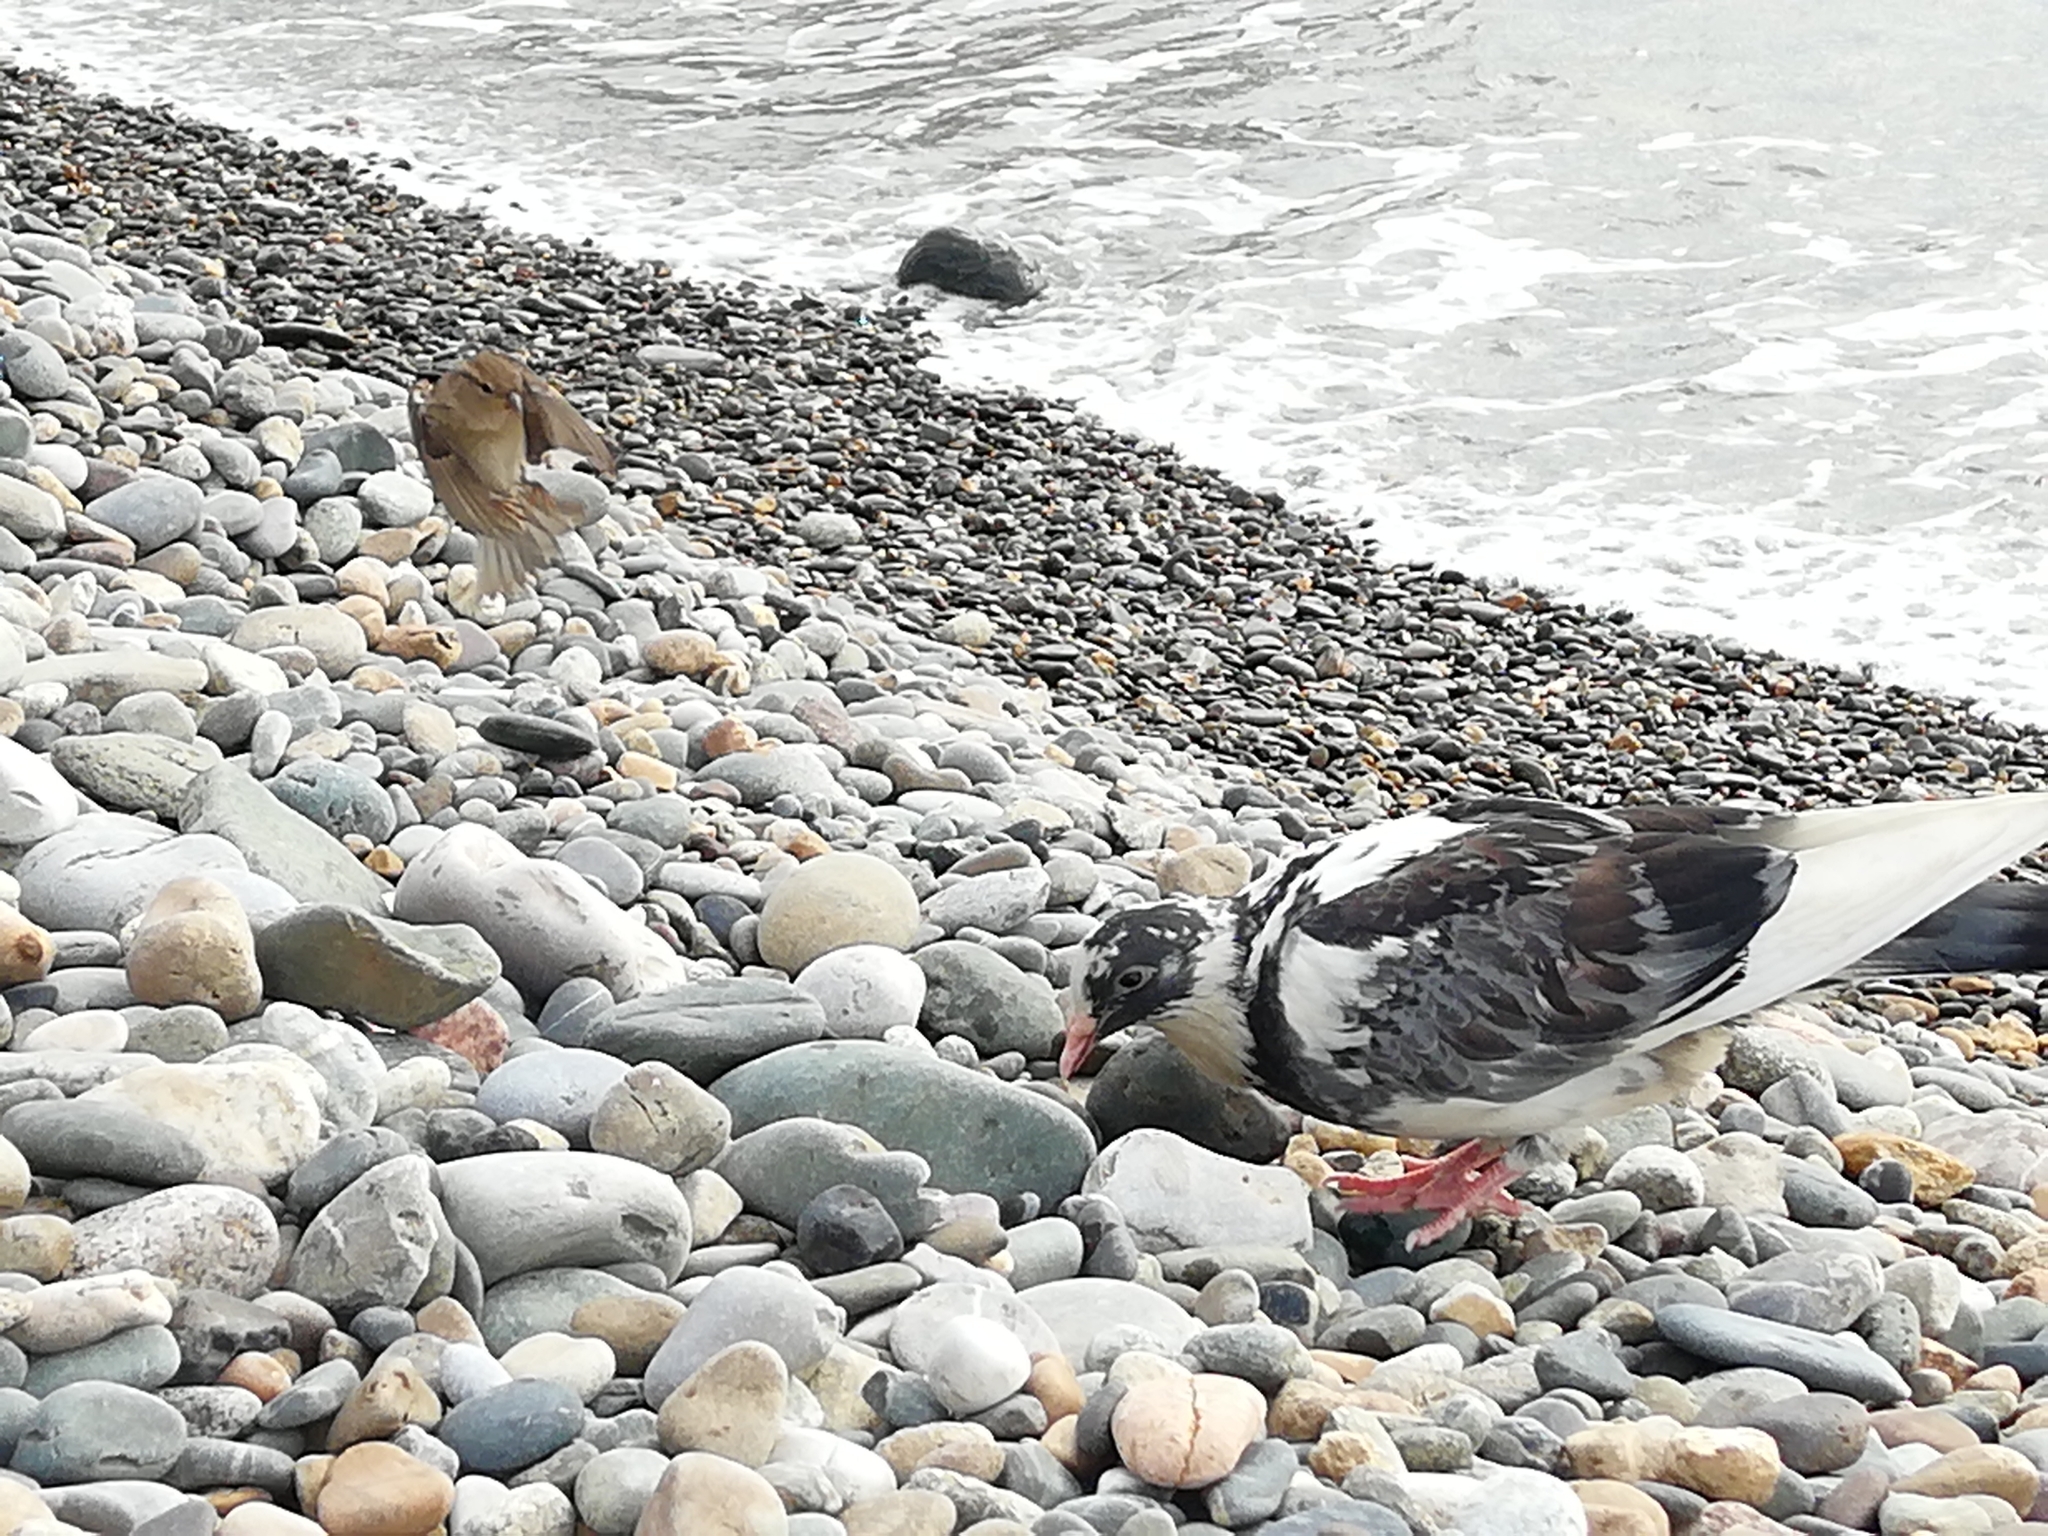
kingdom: Animalia
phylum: Chordata
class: Aves
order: Columbiformes
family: Columbidae
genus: Columba
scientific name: Columba livia
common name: Rock pigeon
